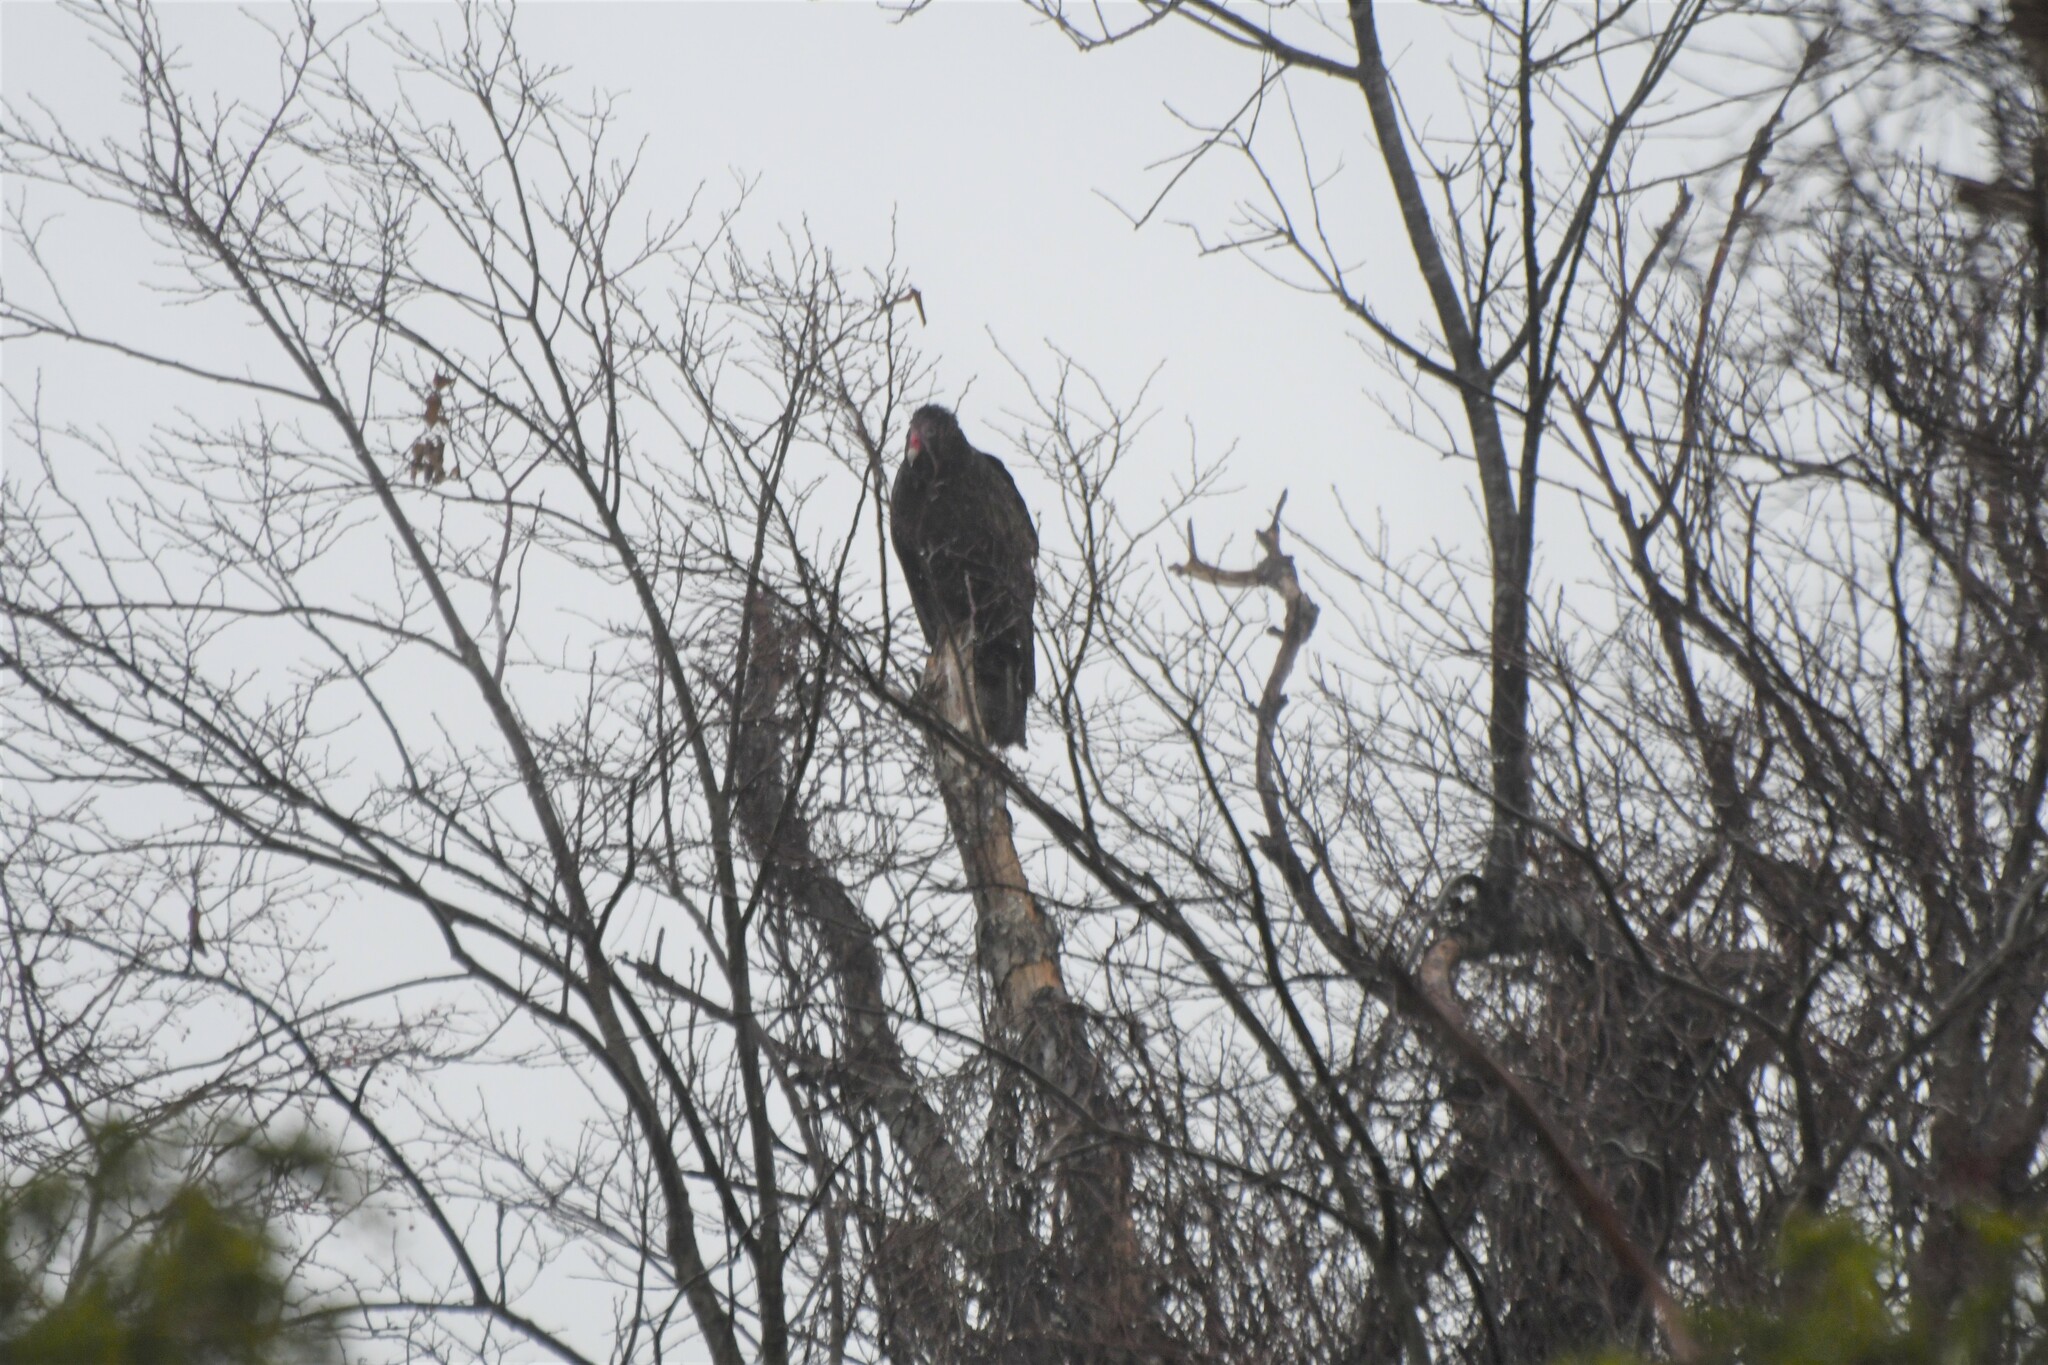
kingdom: Animalia
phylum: Chordata
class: Aves
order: Accipitriformes
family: Cathartidae
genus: Cathartes
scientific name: Cathartes aura
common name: Turkey vulture
